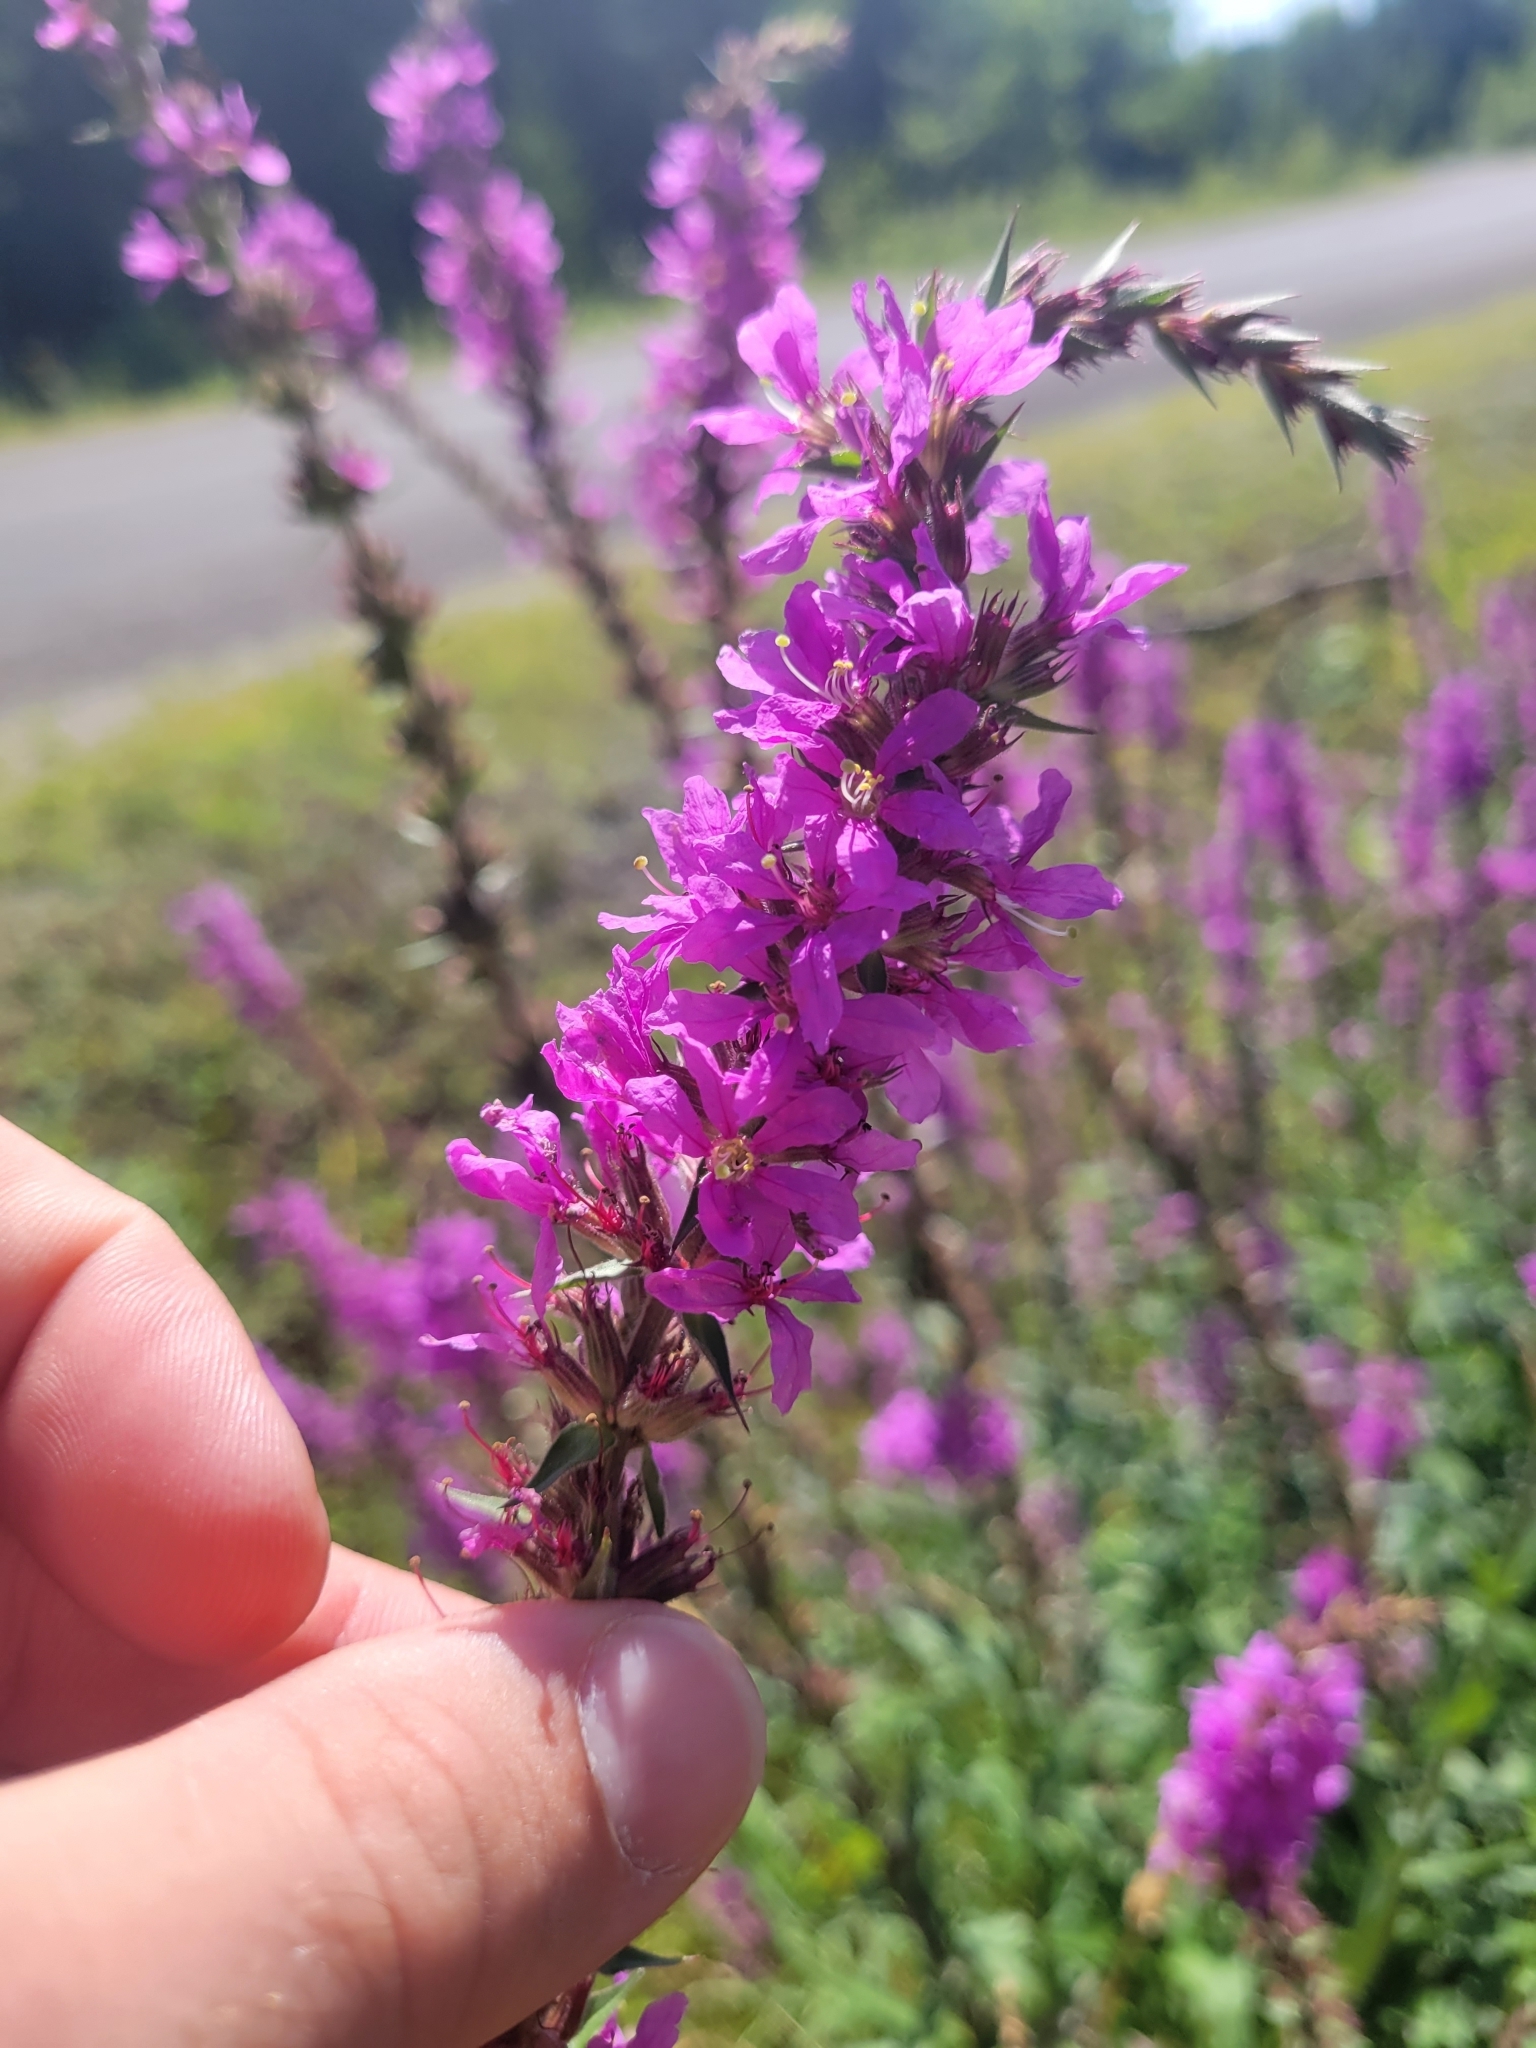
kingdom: Plantae
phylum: Tracheophyta
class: Magnoliopsida
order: Myrtales
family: Lythraceae
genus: Lythrum
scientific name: Lythrum salicaria
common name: Purple loosestrife
